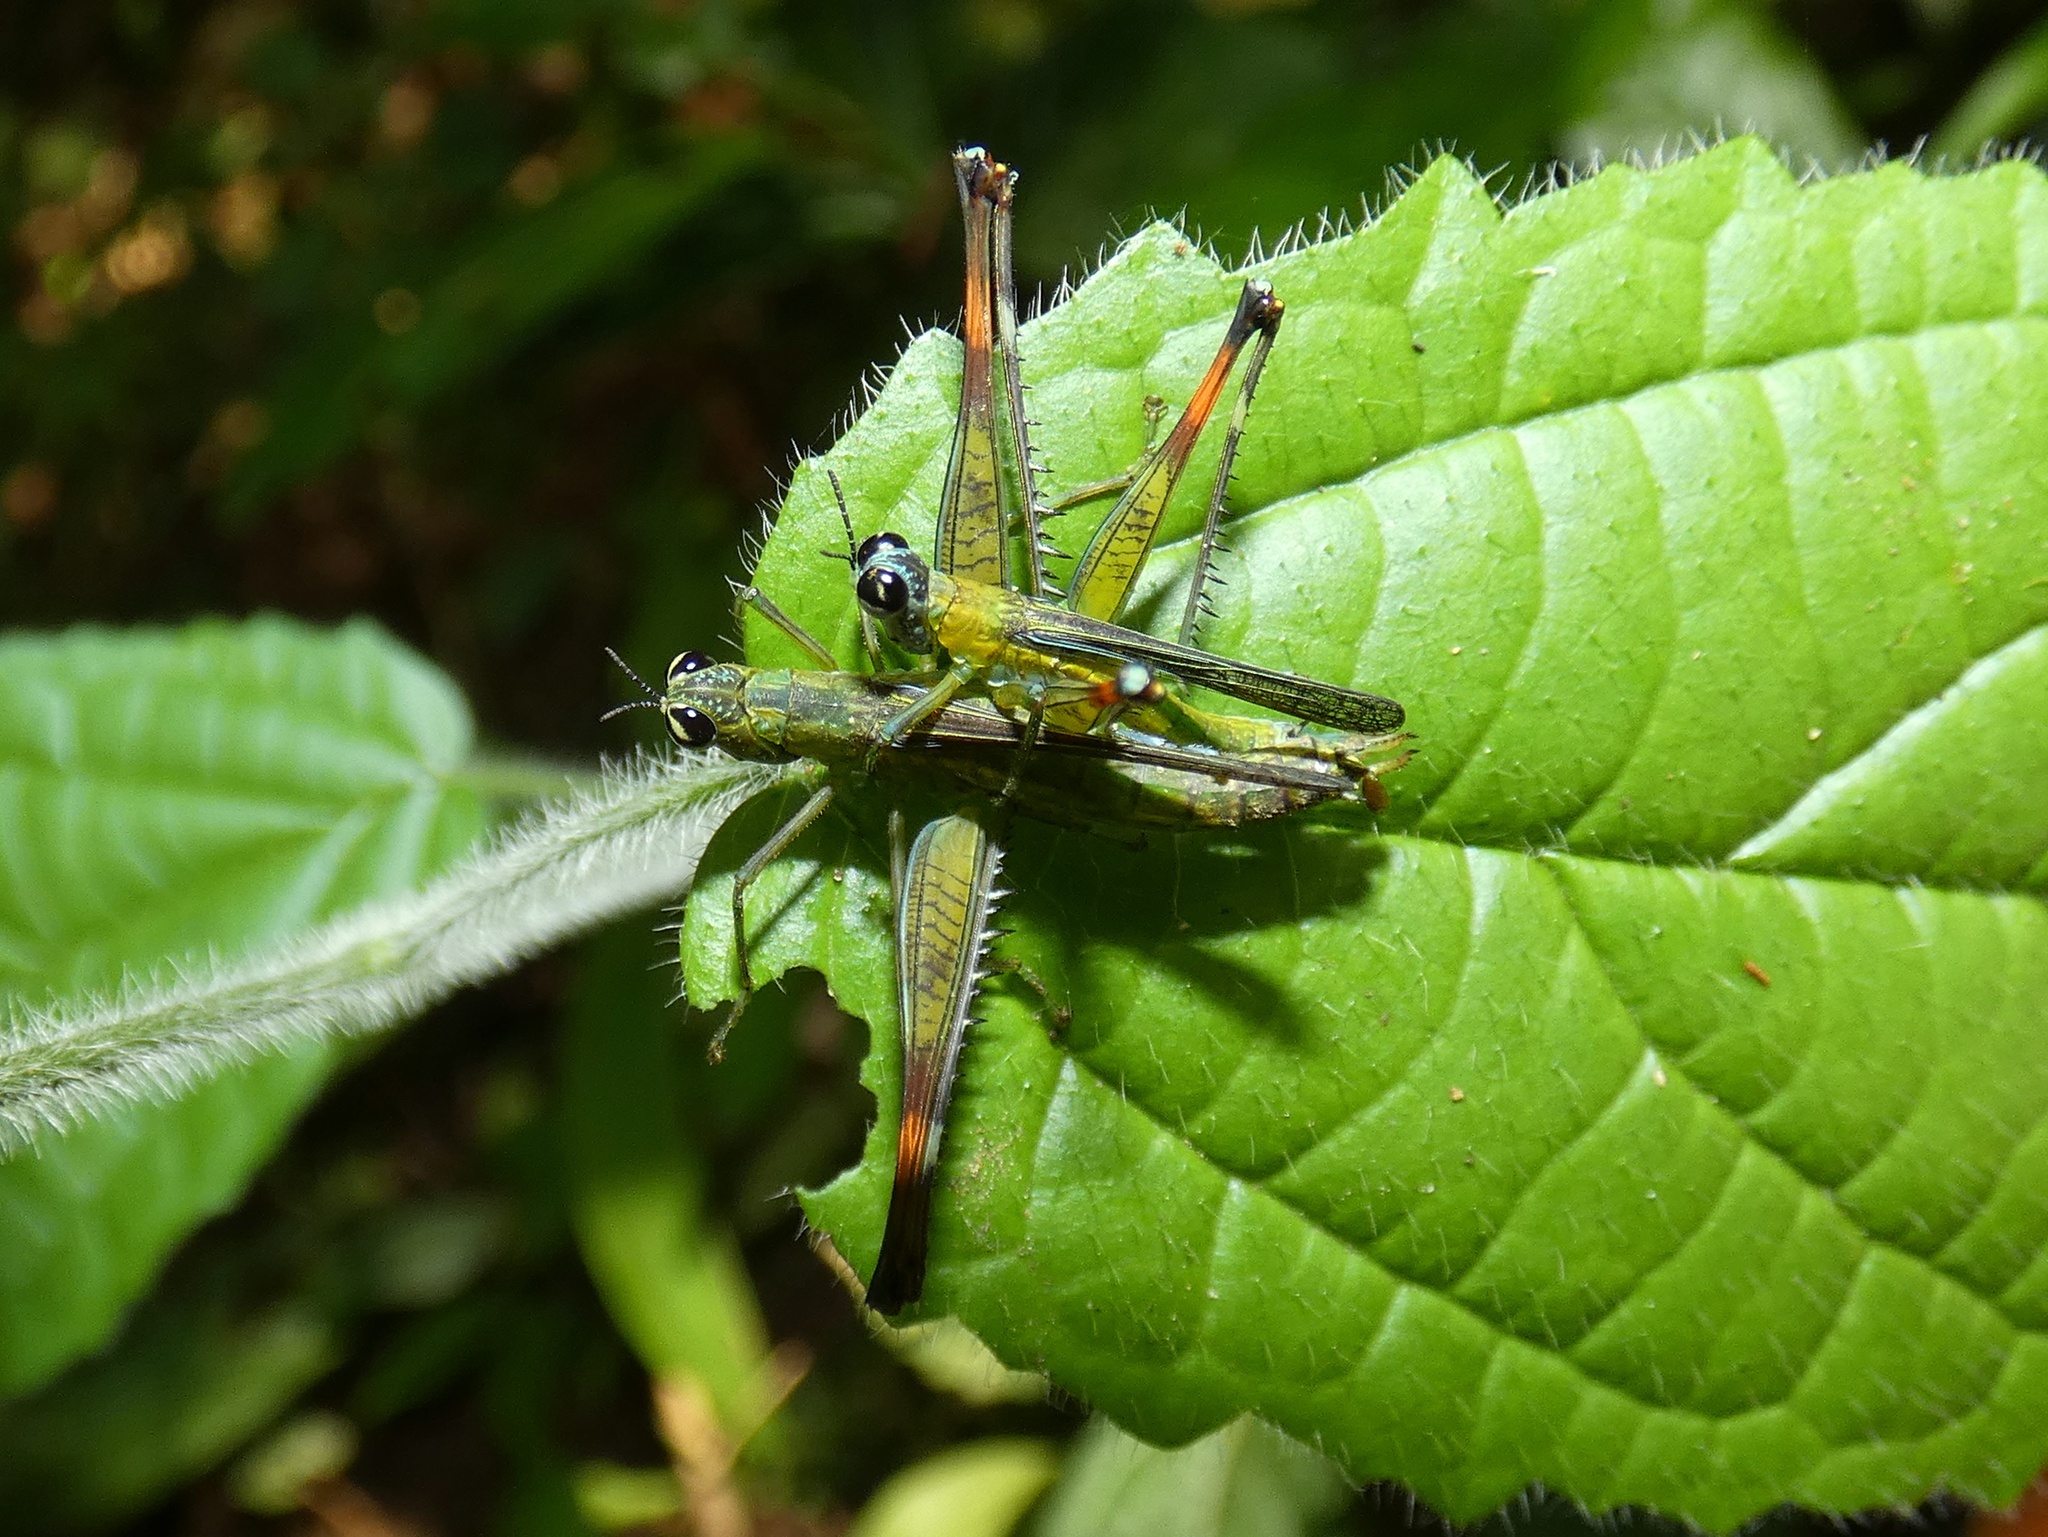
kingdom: Animalia
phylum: Arthropoda
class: Insecta
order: Orthoptera
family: Eumastacidae
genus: Homeomastax
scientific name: Homeomastax veraguae
